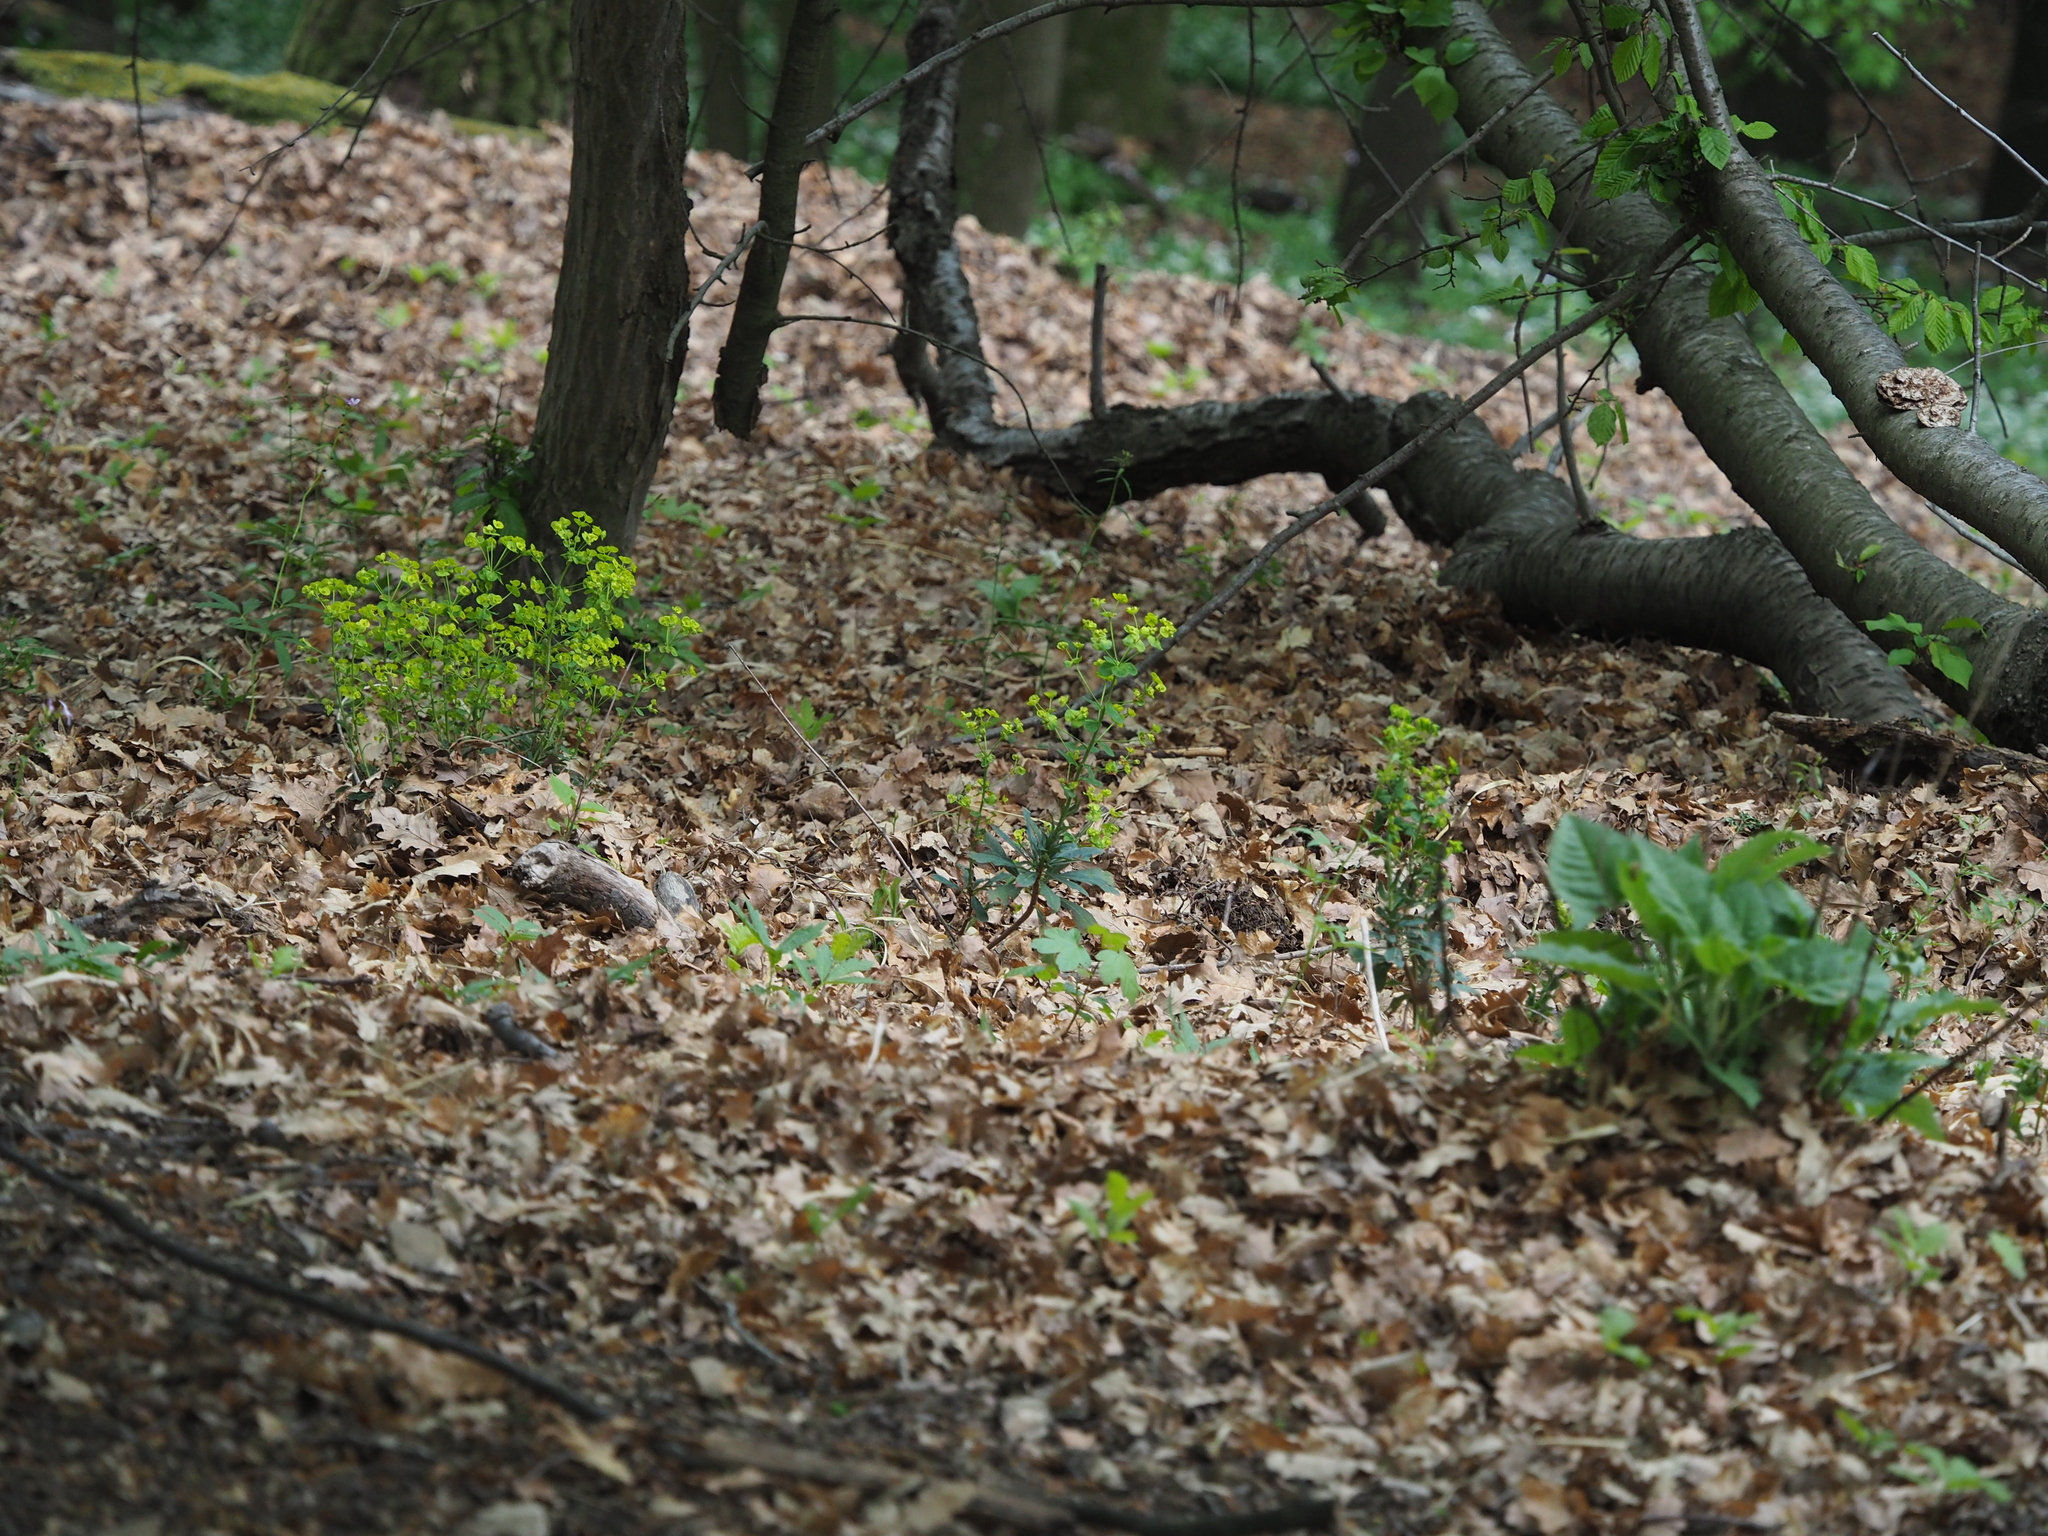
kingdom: Plantae
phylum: Tracheophyta
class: Magnoliopsida
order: Malpighiales
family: Euphorbiaceae
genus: Euphorbia
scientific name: Euphorbia amygdaloides
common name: Wood spurge
